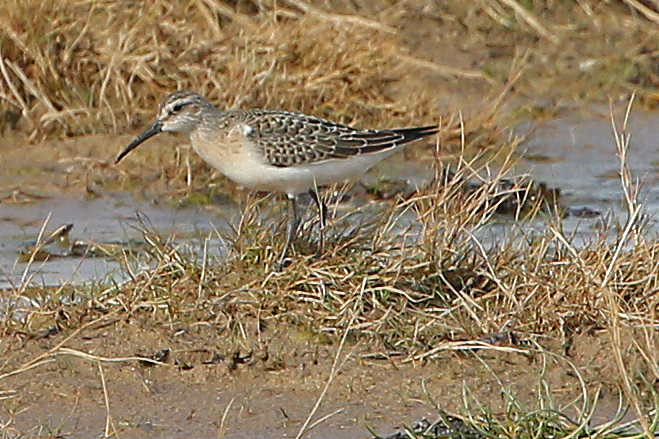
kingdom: Animalia
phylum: Chordata
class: Aves
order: Charadriiformes
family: Scolopacidae
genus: Calidris
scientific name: Calidris ferruginea
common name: Curlew sandpiper
